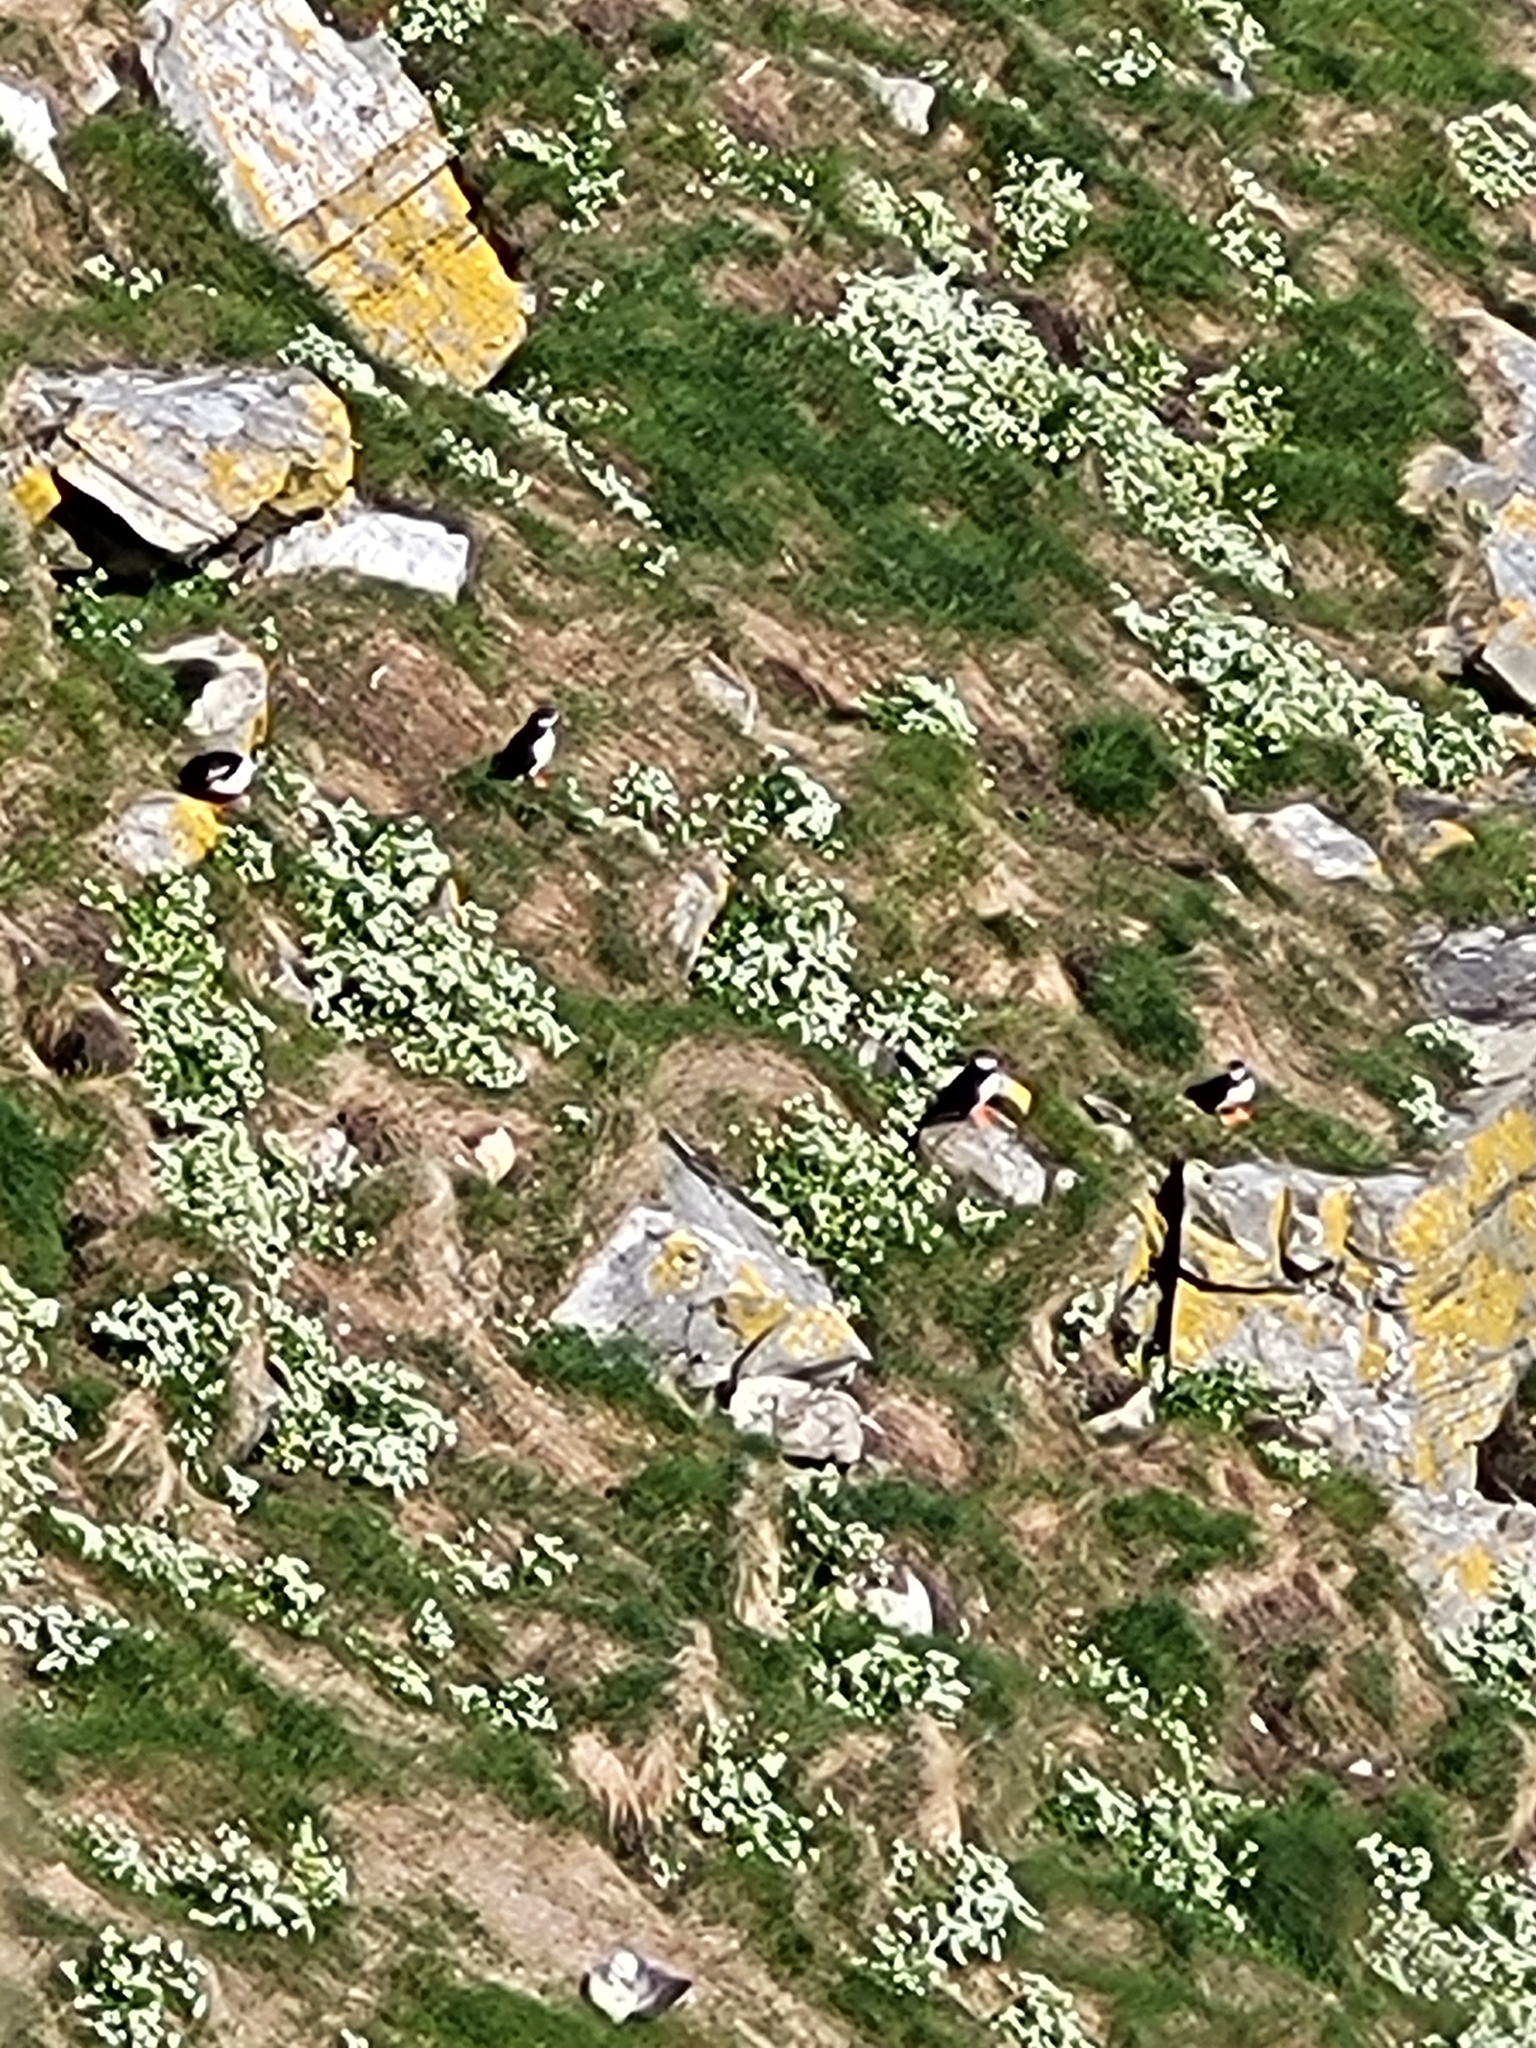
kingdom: Animalia
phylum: Chordata
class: Aves
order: Charadriiformes
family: Alcidae
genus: Fratercula
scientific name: Fratercula arctica
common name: Atlantic puffin
